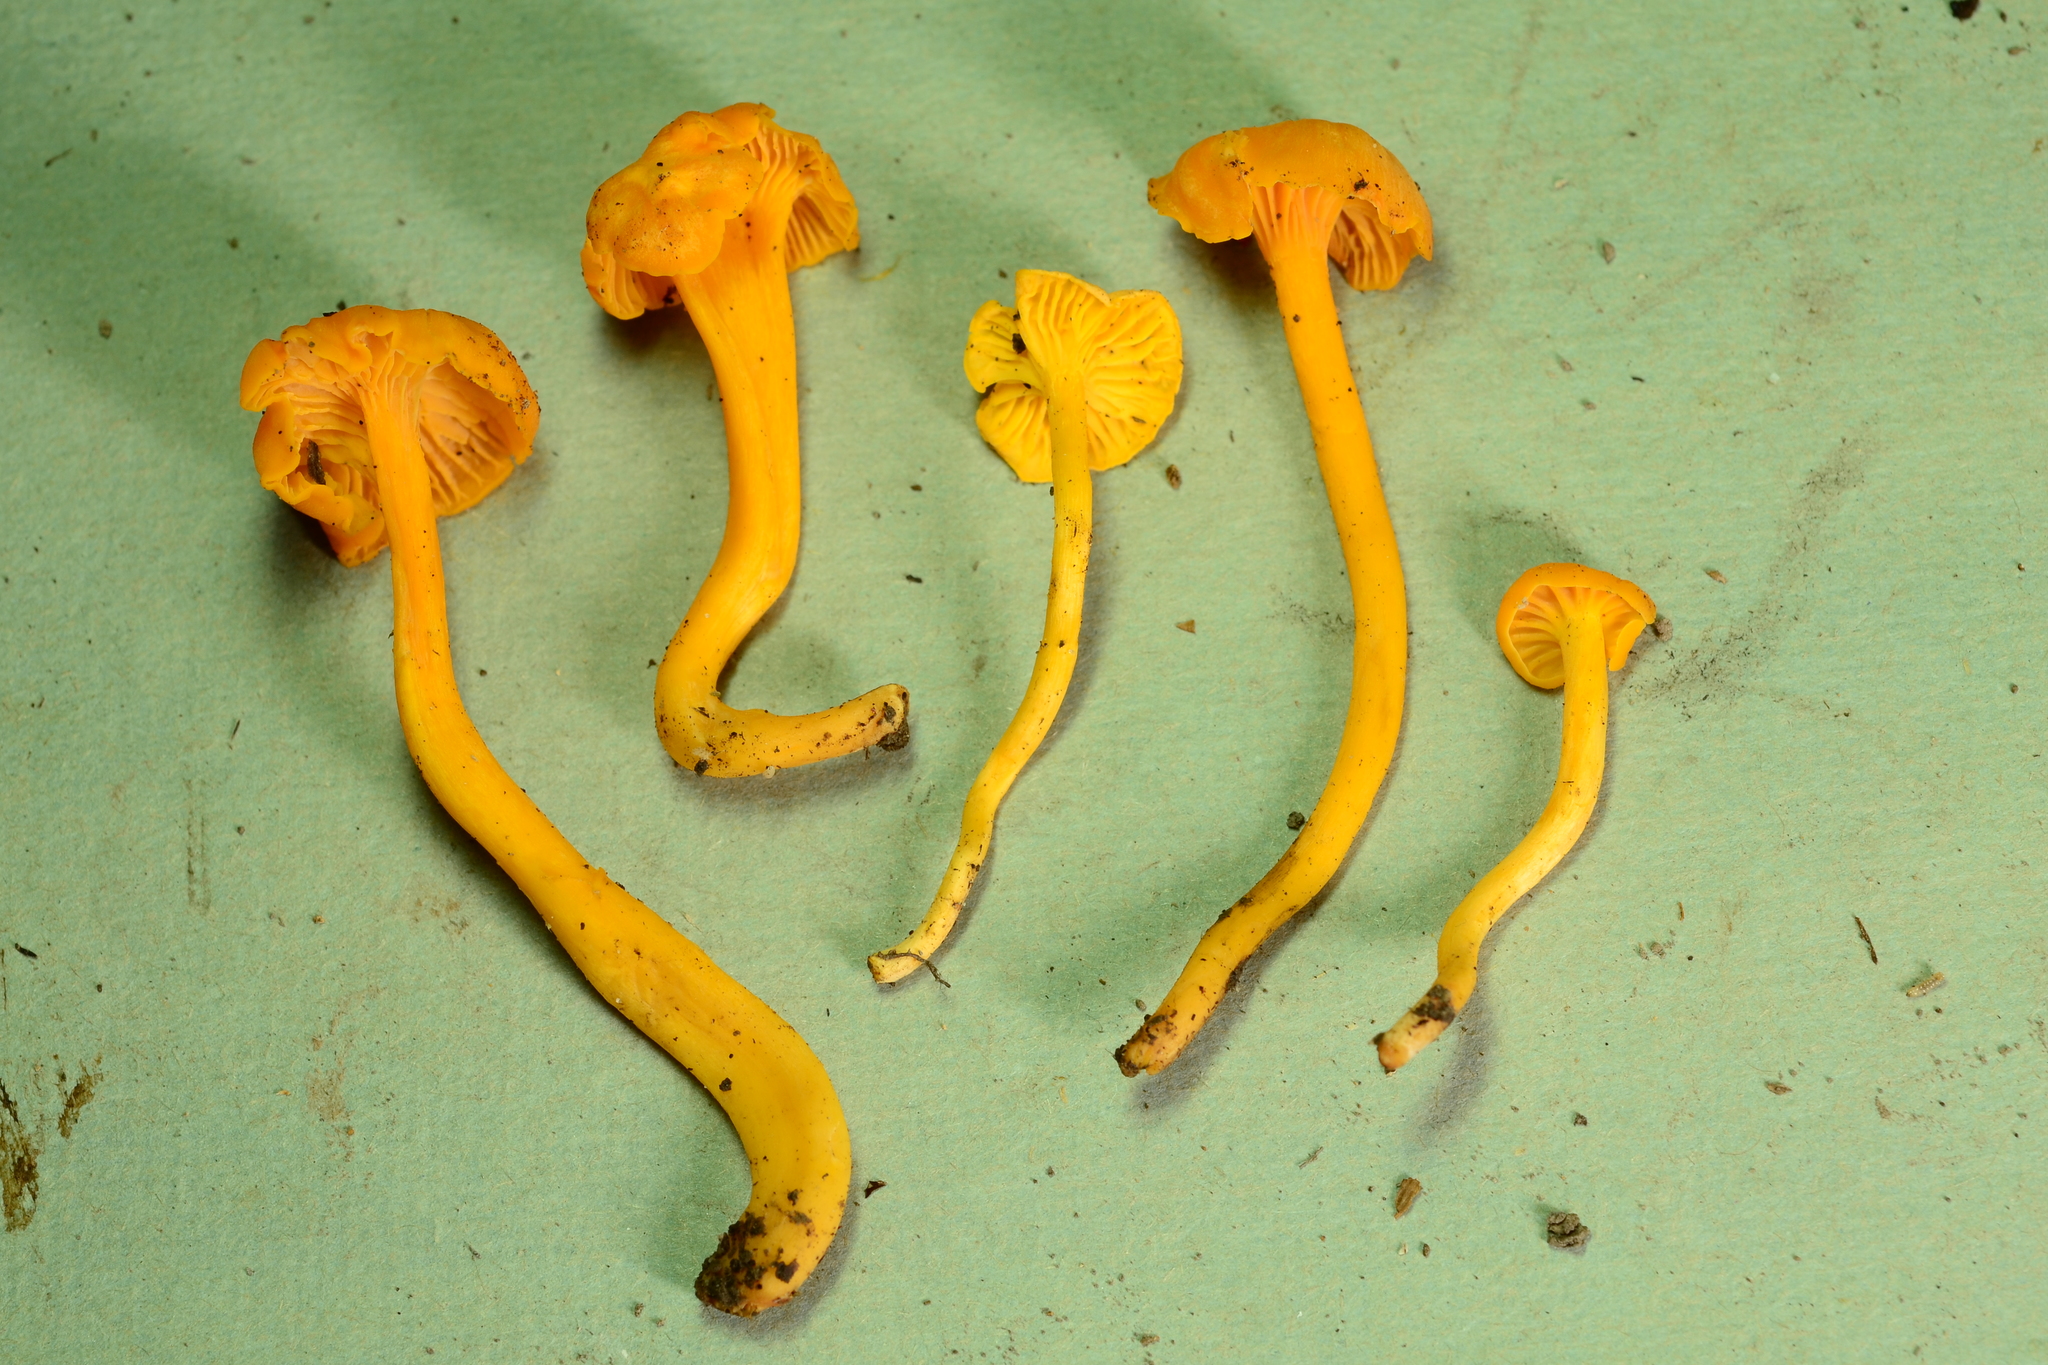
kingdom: Fungi
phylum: Basidiomycota
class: Agaricomycetes
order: Cantharellales
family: Hydnaceae
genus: Cantharellus
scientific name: Cantharellus minor
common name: Small chanterelle
